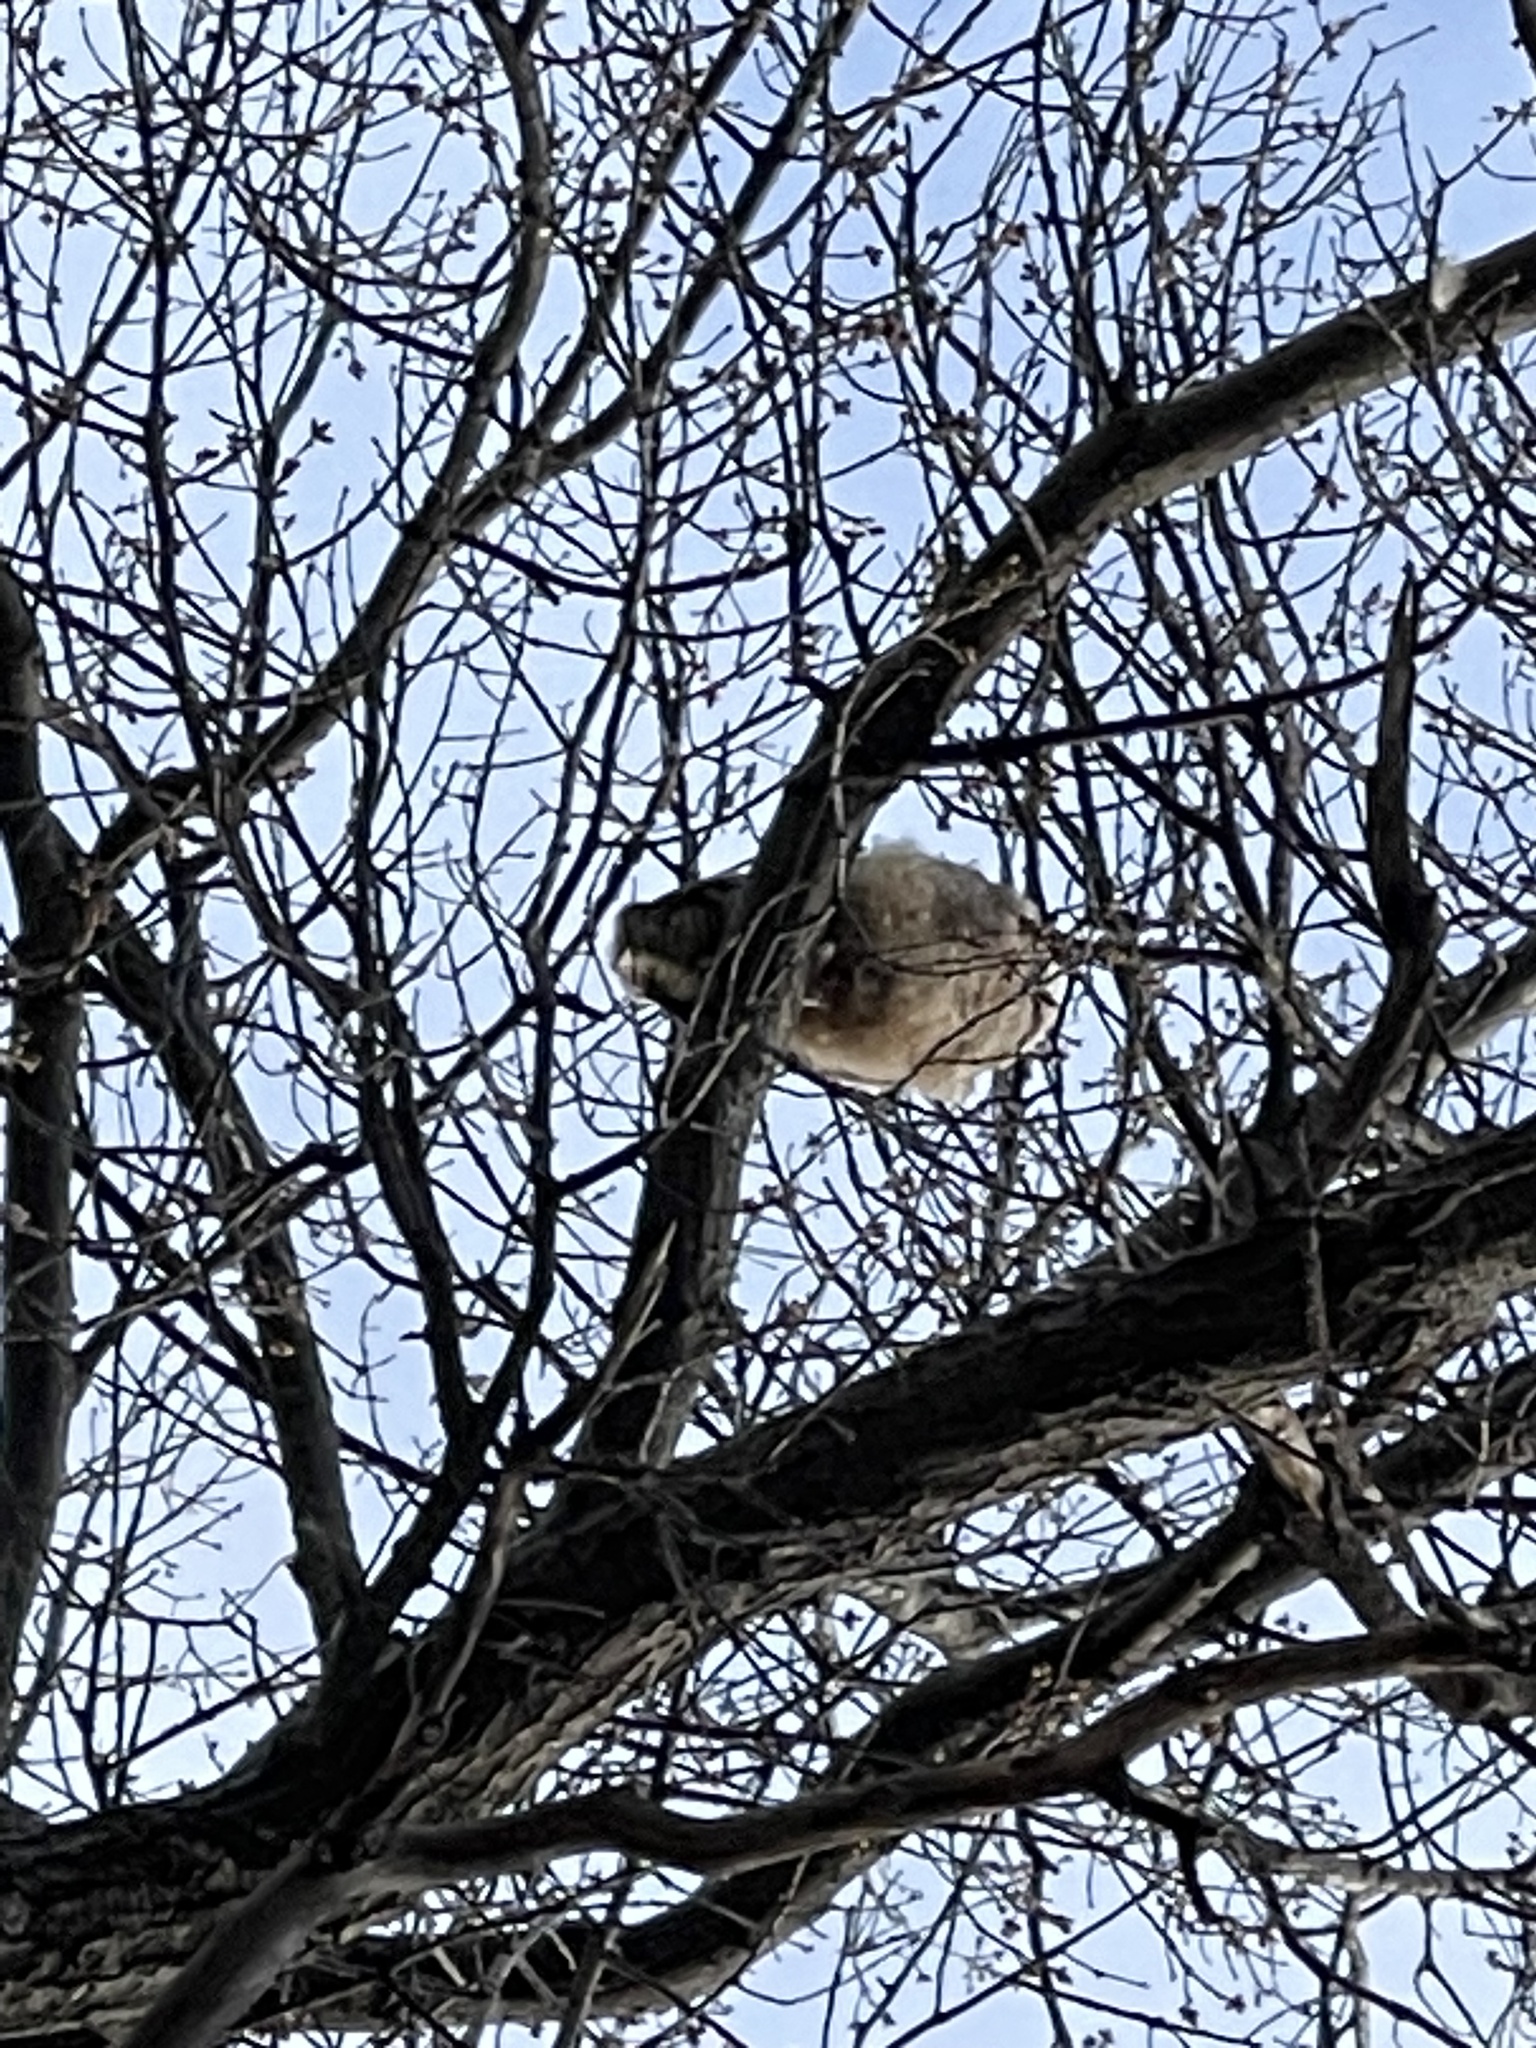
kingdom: Animalia
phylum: Chordata
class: Aves
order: Strigiformes
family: Strigidae
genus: Bubo
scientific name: Bubo virginianus
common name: Great horned owl
